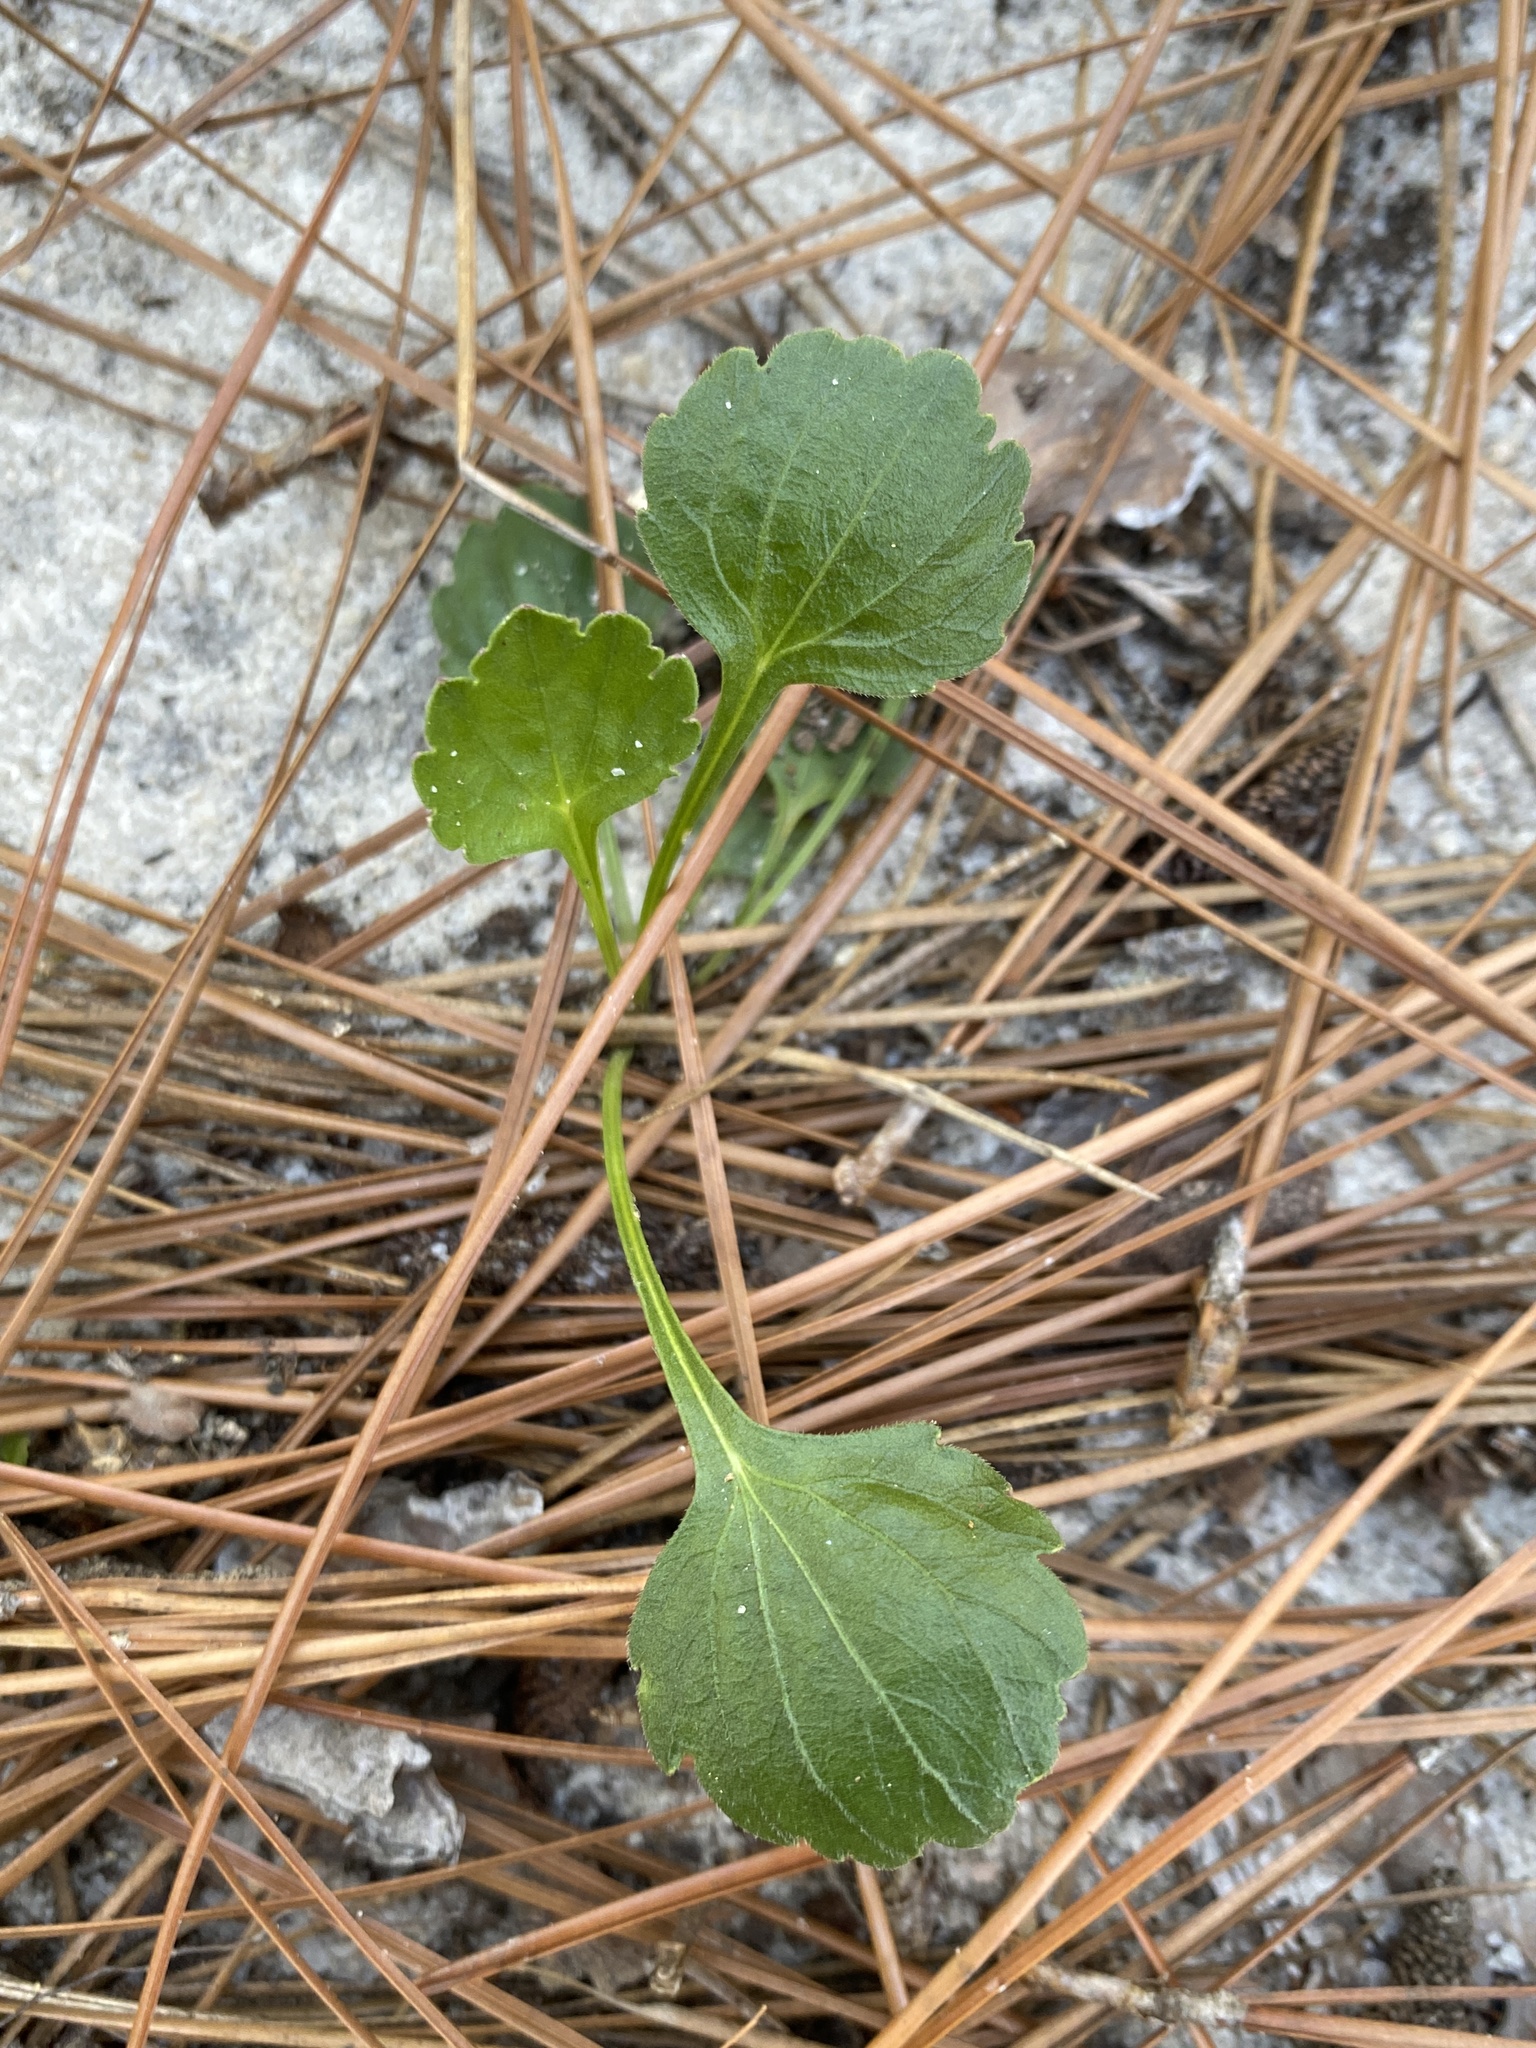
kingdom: Plantae
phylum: Tracheophyta
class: Magnoliopsida
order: Malpighiales
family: Violaceae
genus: Viola
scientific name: Viola pedata
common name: Pansy violet
